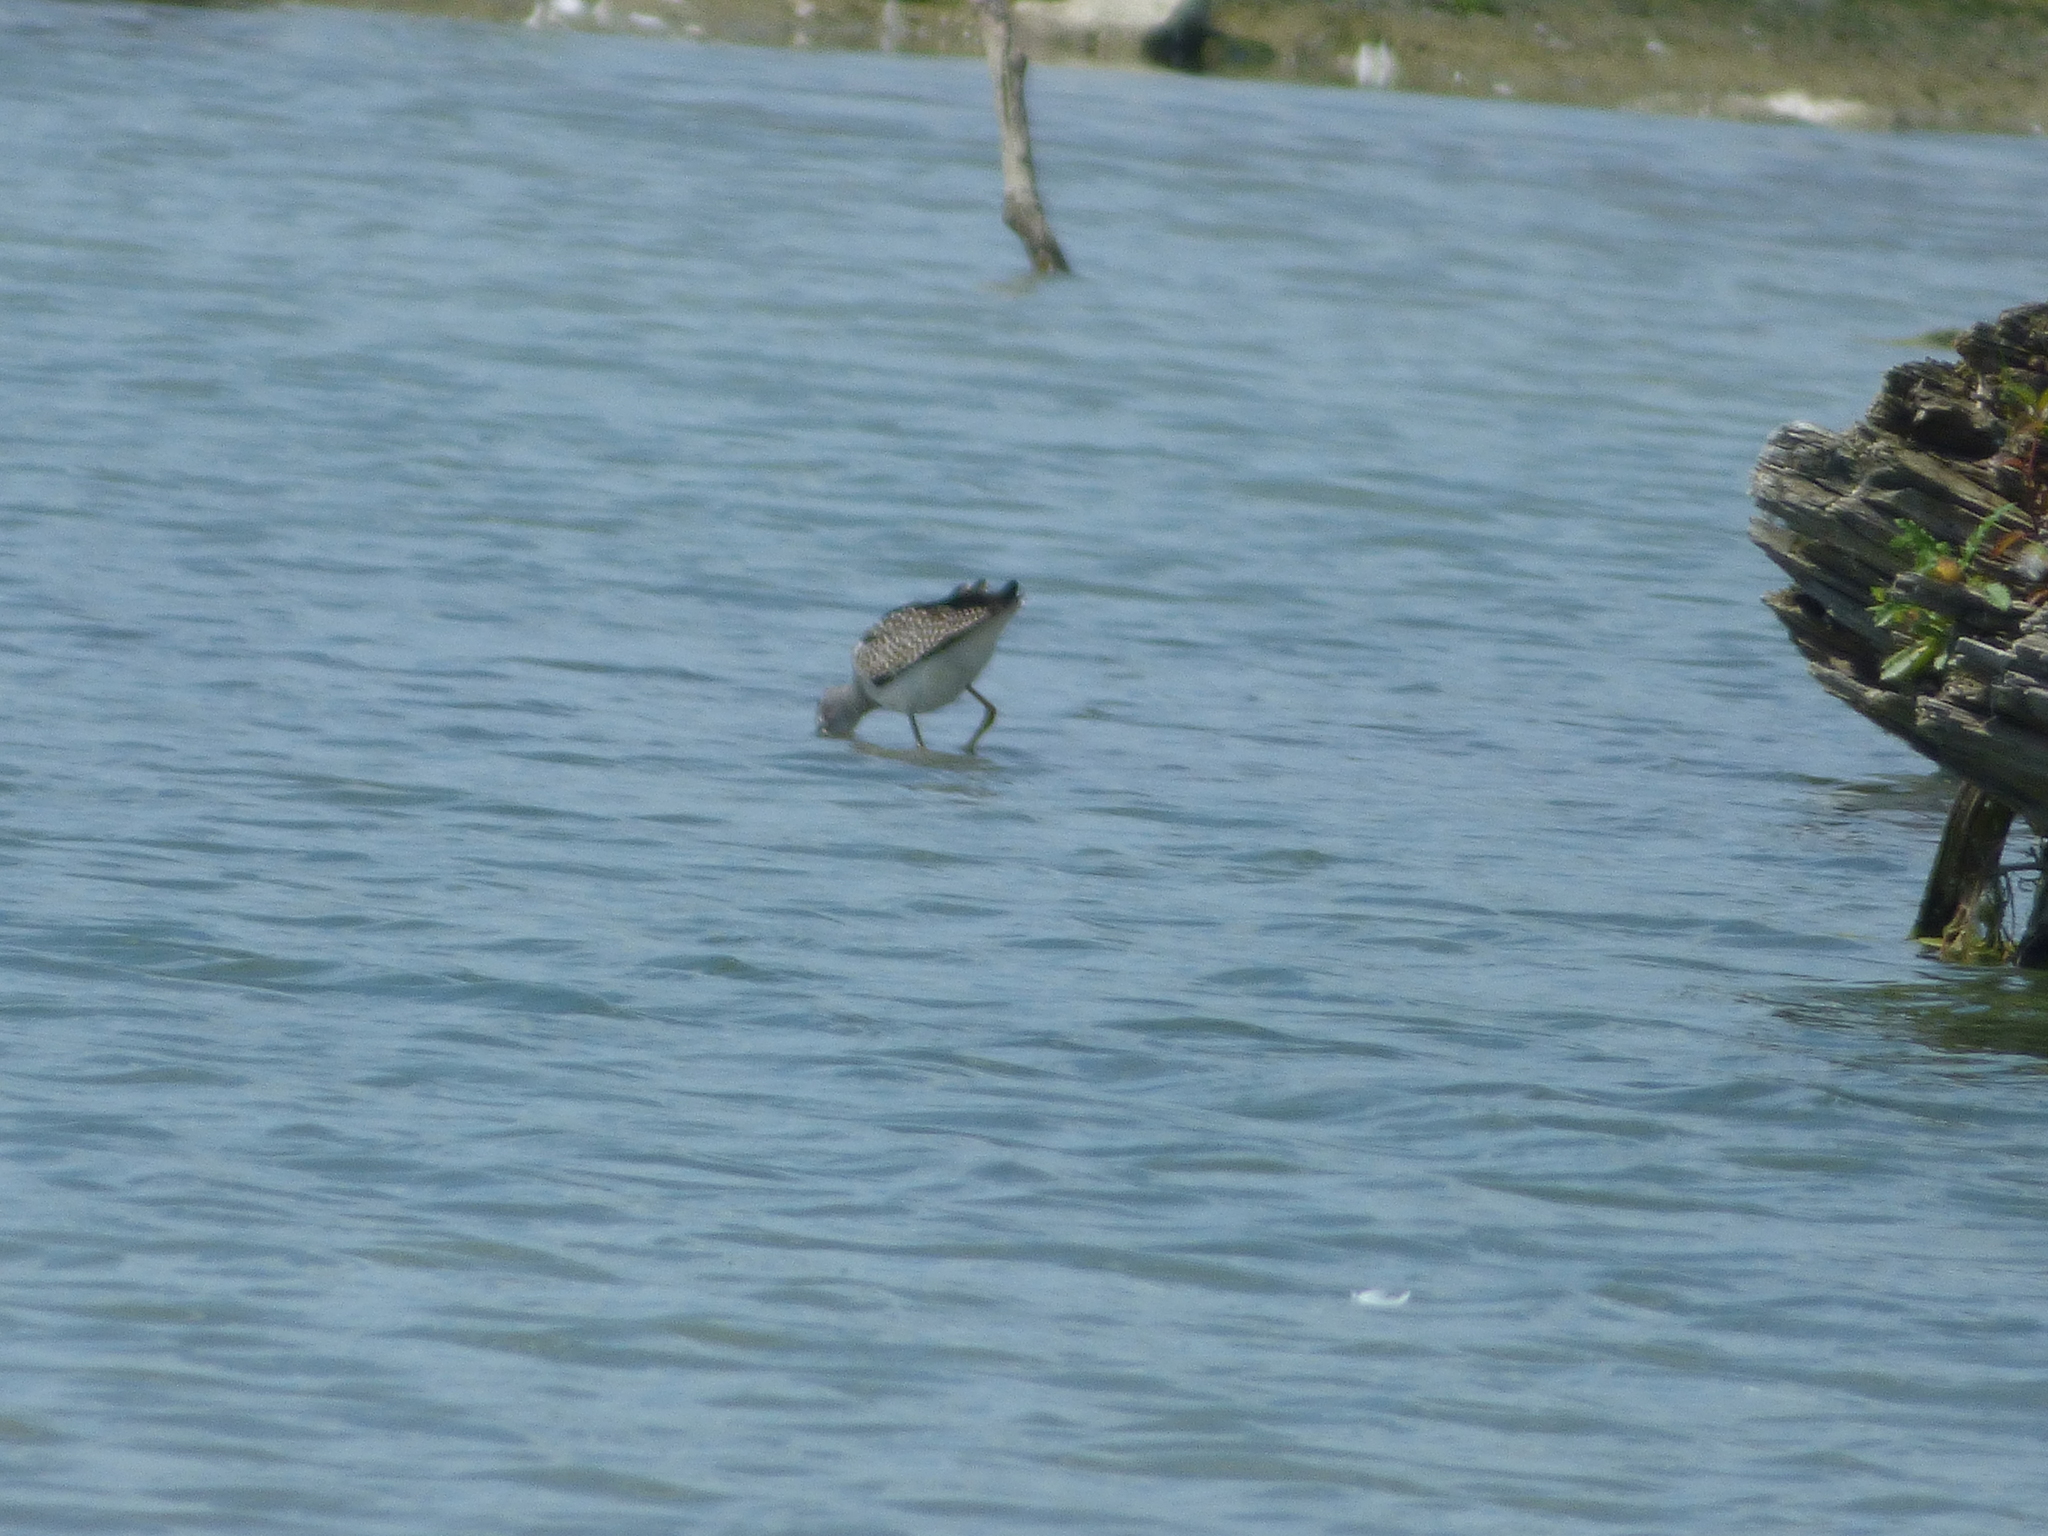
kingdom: Animalia
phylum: Chordata
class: Aves
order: Charadriiformes
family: Scolopacidae
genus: Tringa
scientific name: Tringa melanoleuca
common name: Greater yellowlegs
